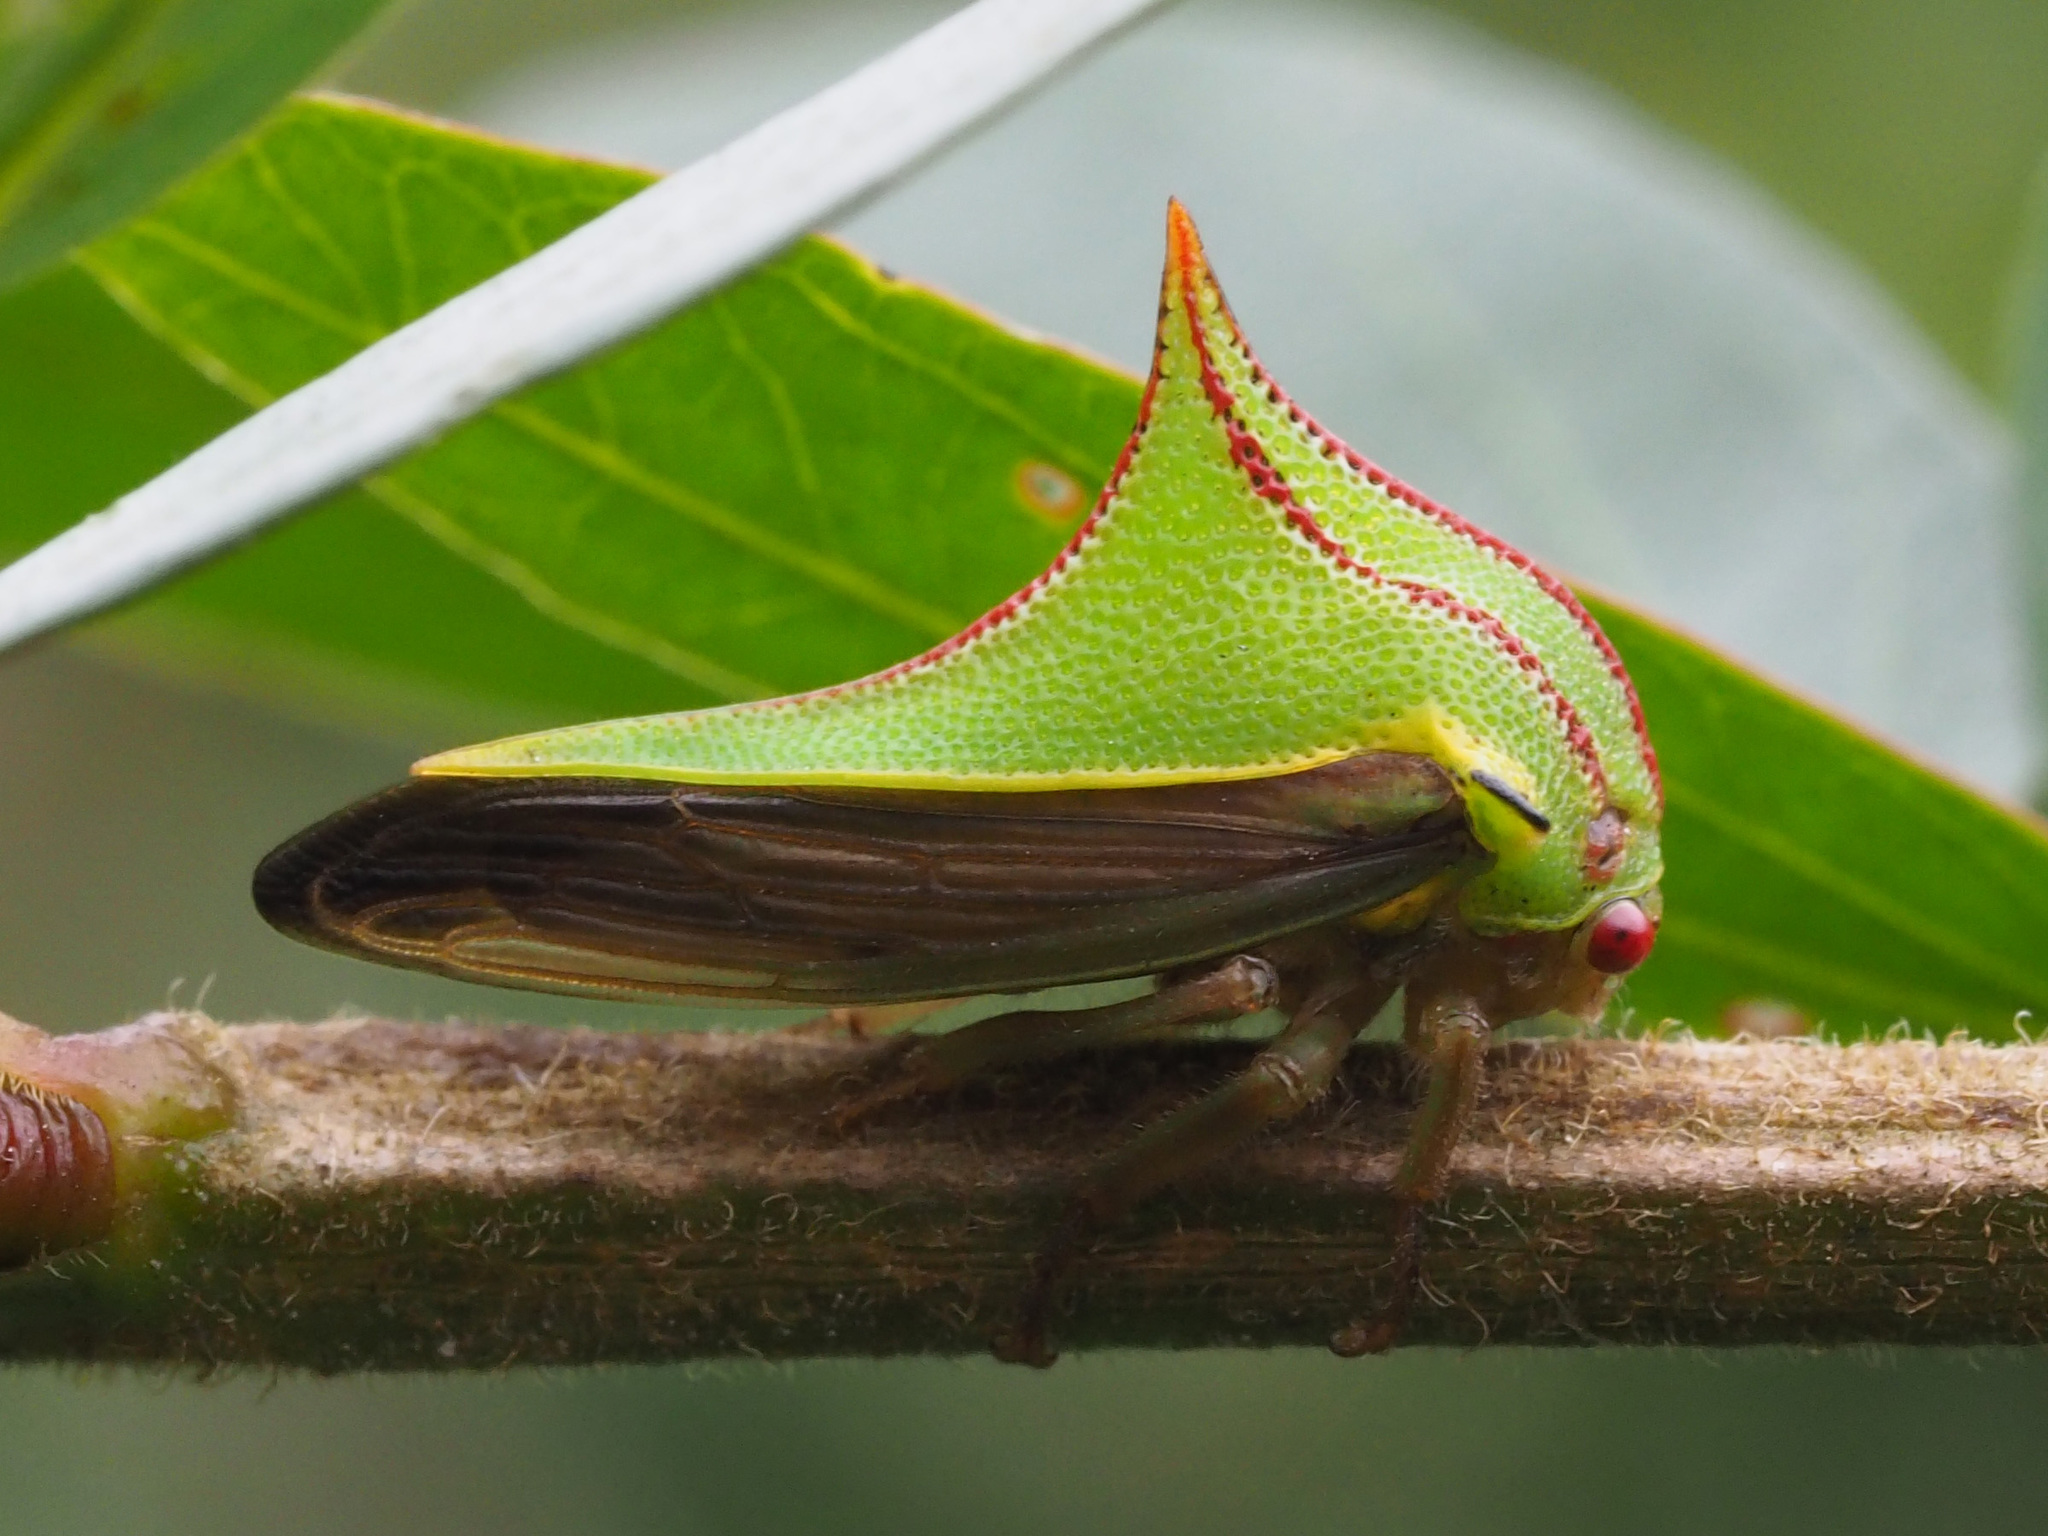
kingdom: Animalia
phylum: Arthropoda
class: Insecta
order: Hemiptera
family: Membracidae
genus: Umbonia
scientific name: Umbonia lativitta
